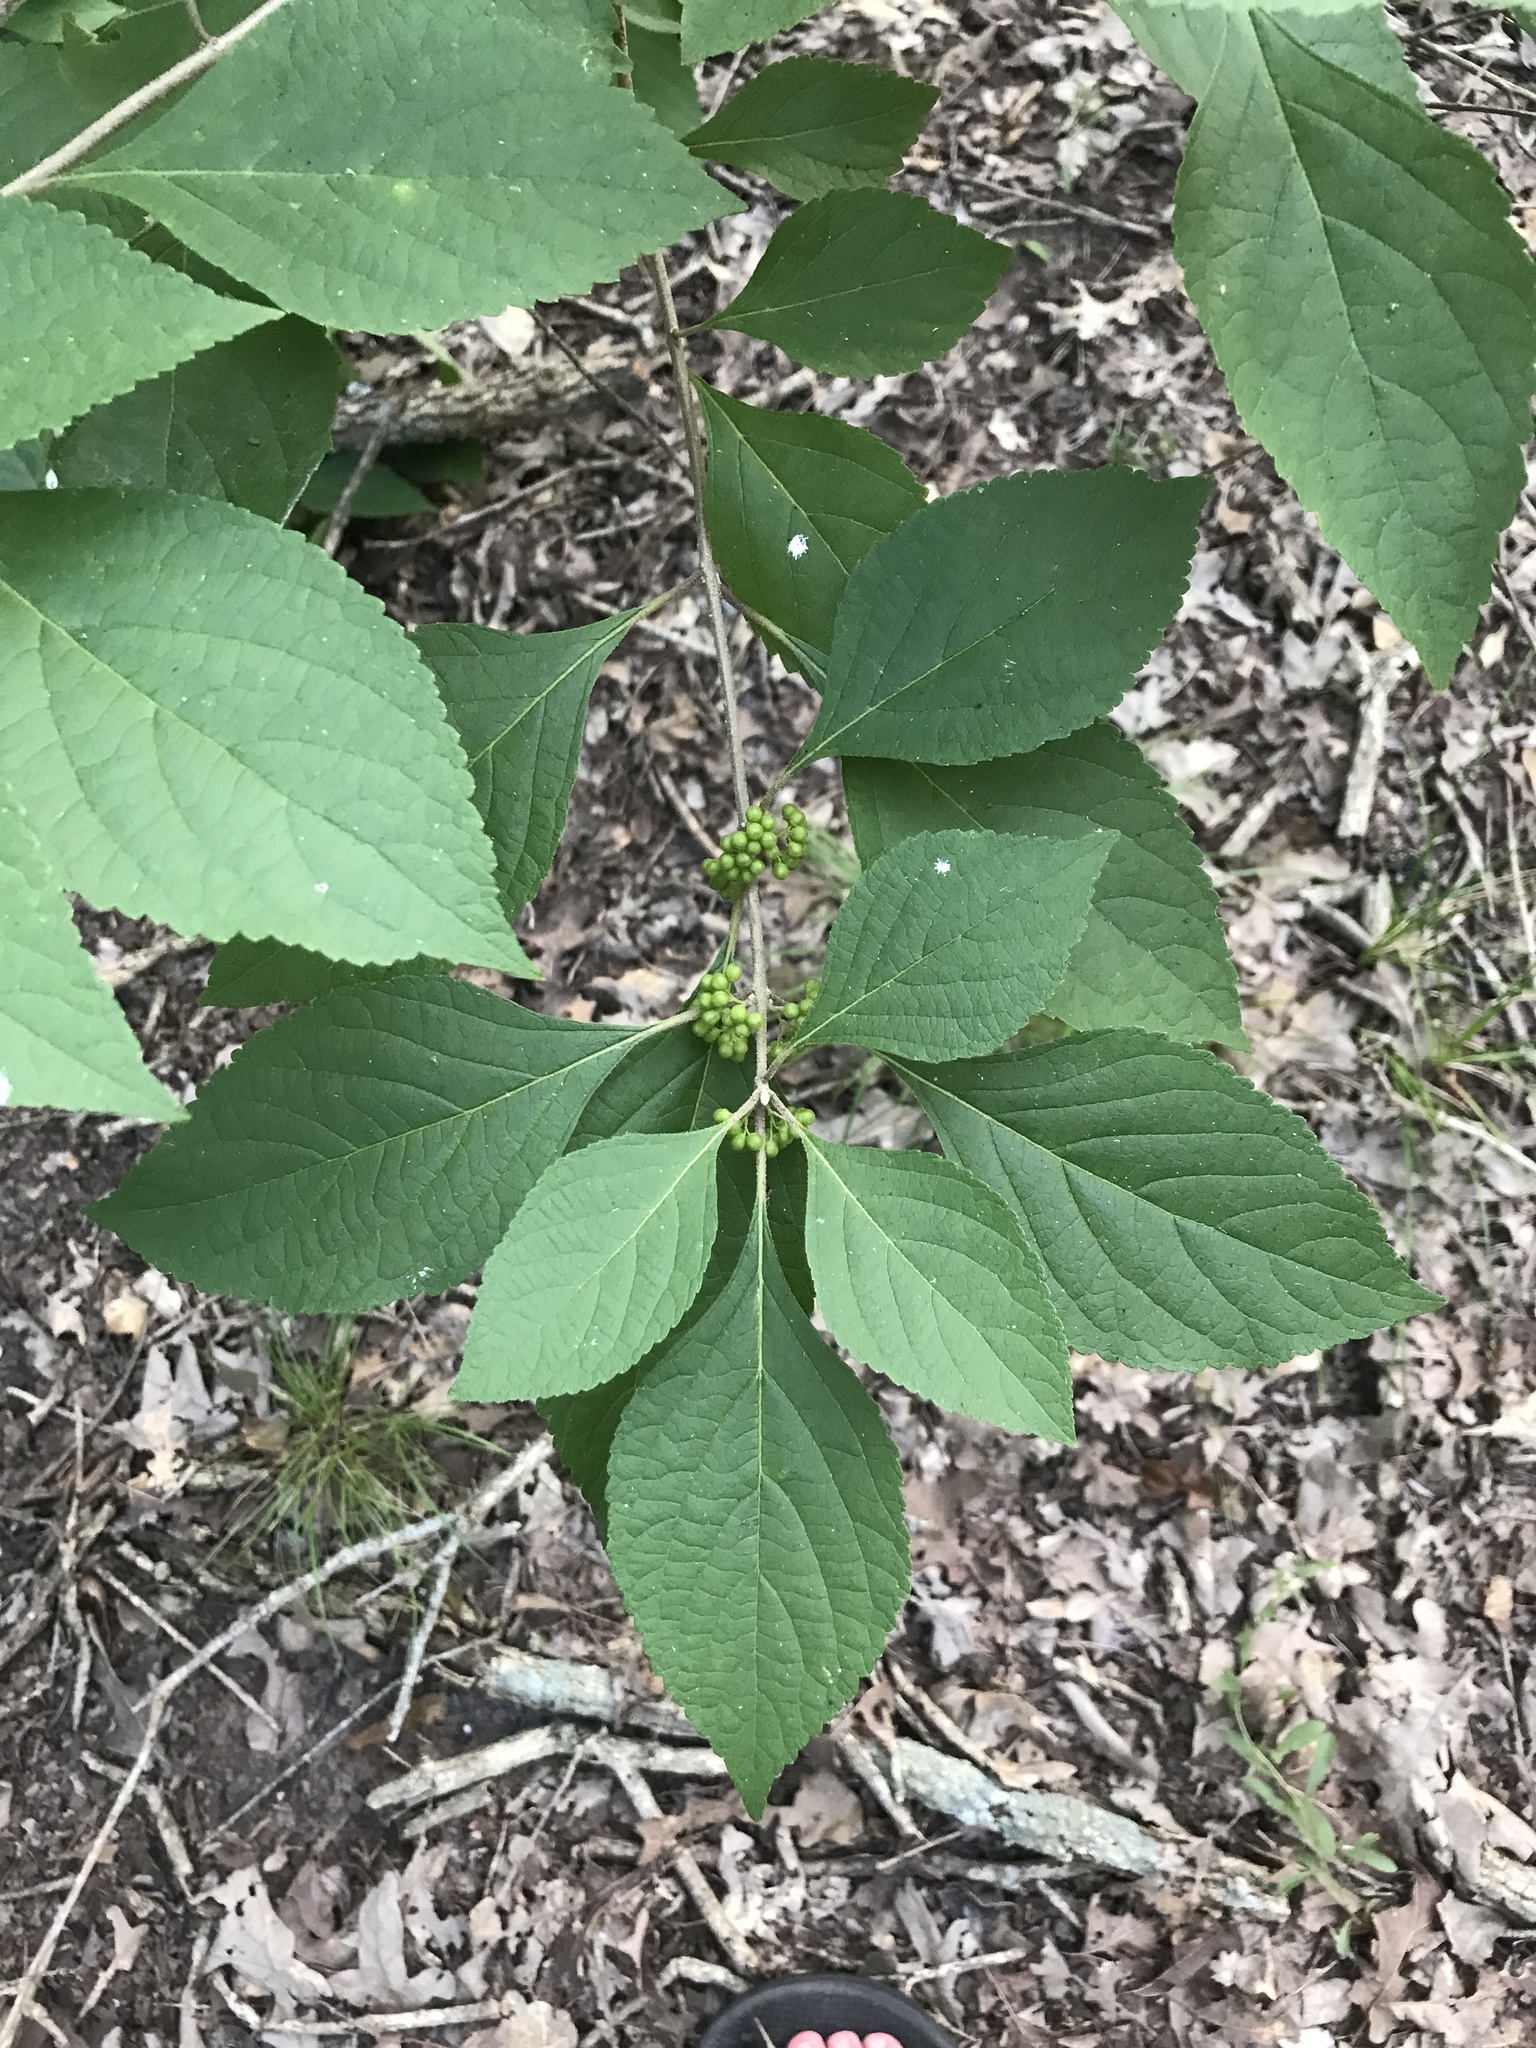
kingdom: Plantae
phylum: Tracheophyta
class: Magnoliopsida
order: Lamiales
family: Lamiaceae
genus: Callicarpa
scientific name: Callicarpa americana
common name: American beautyberry
